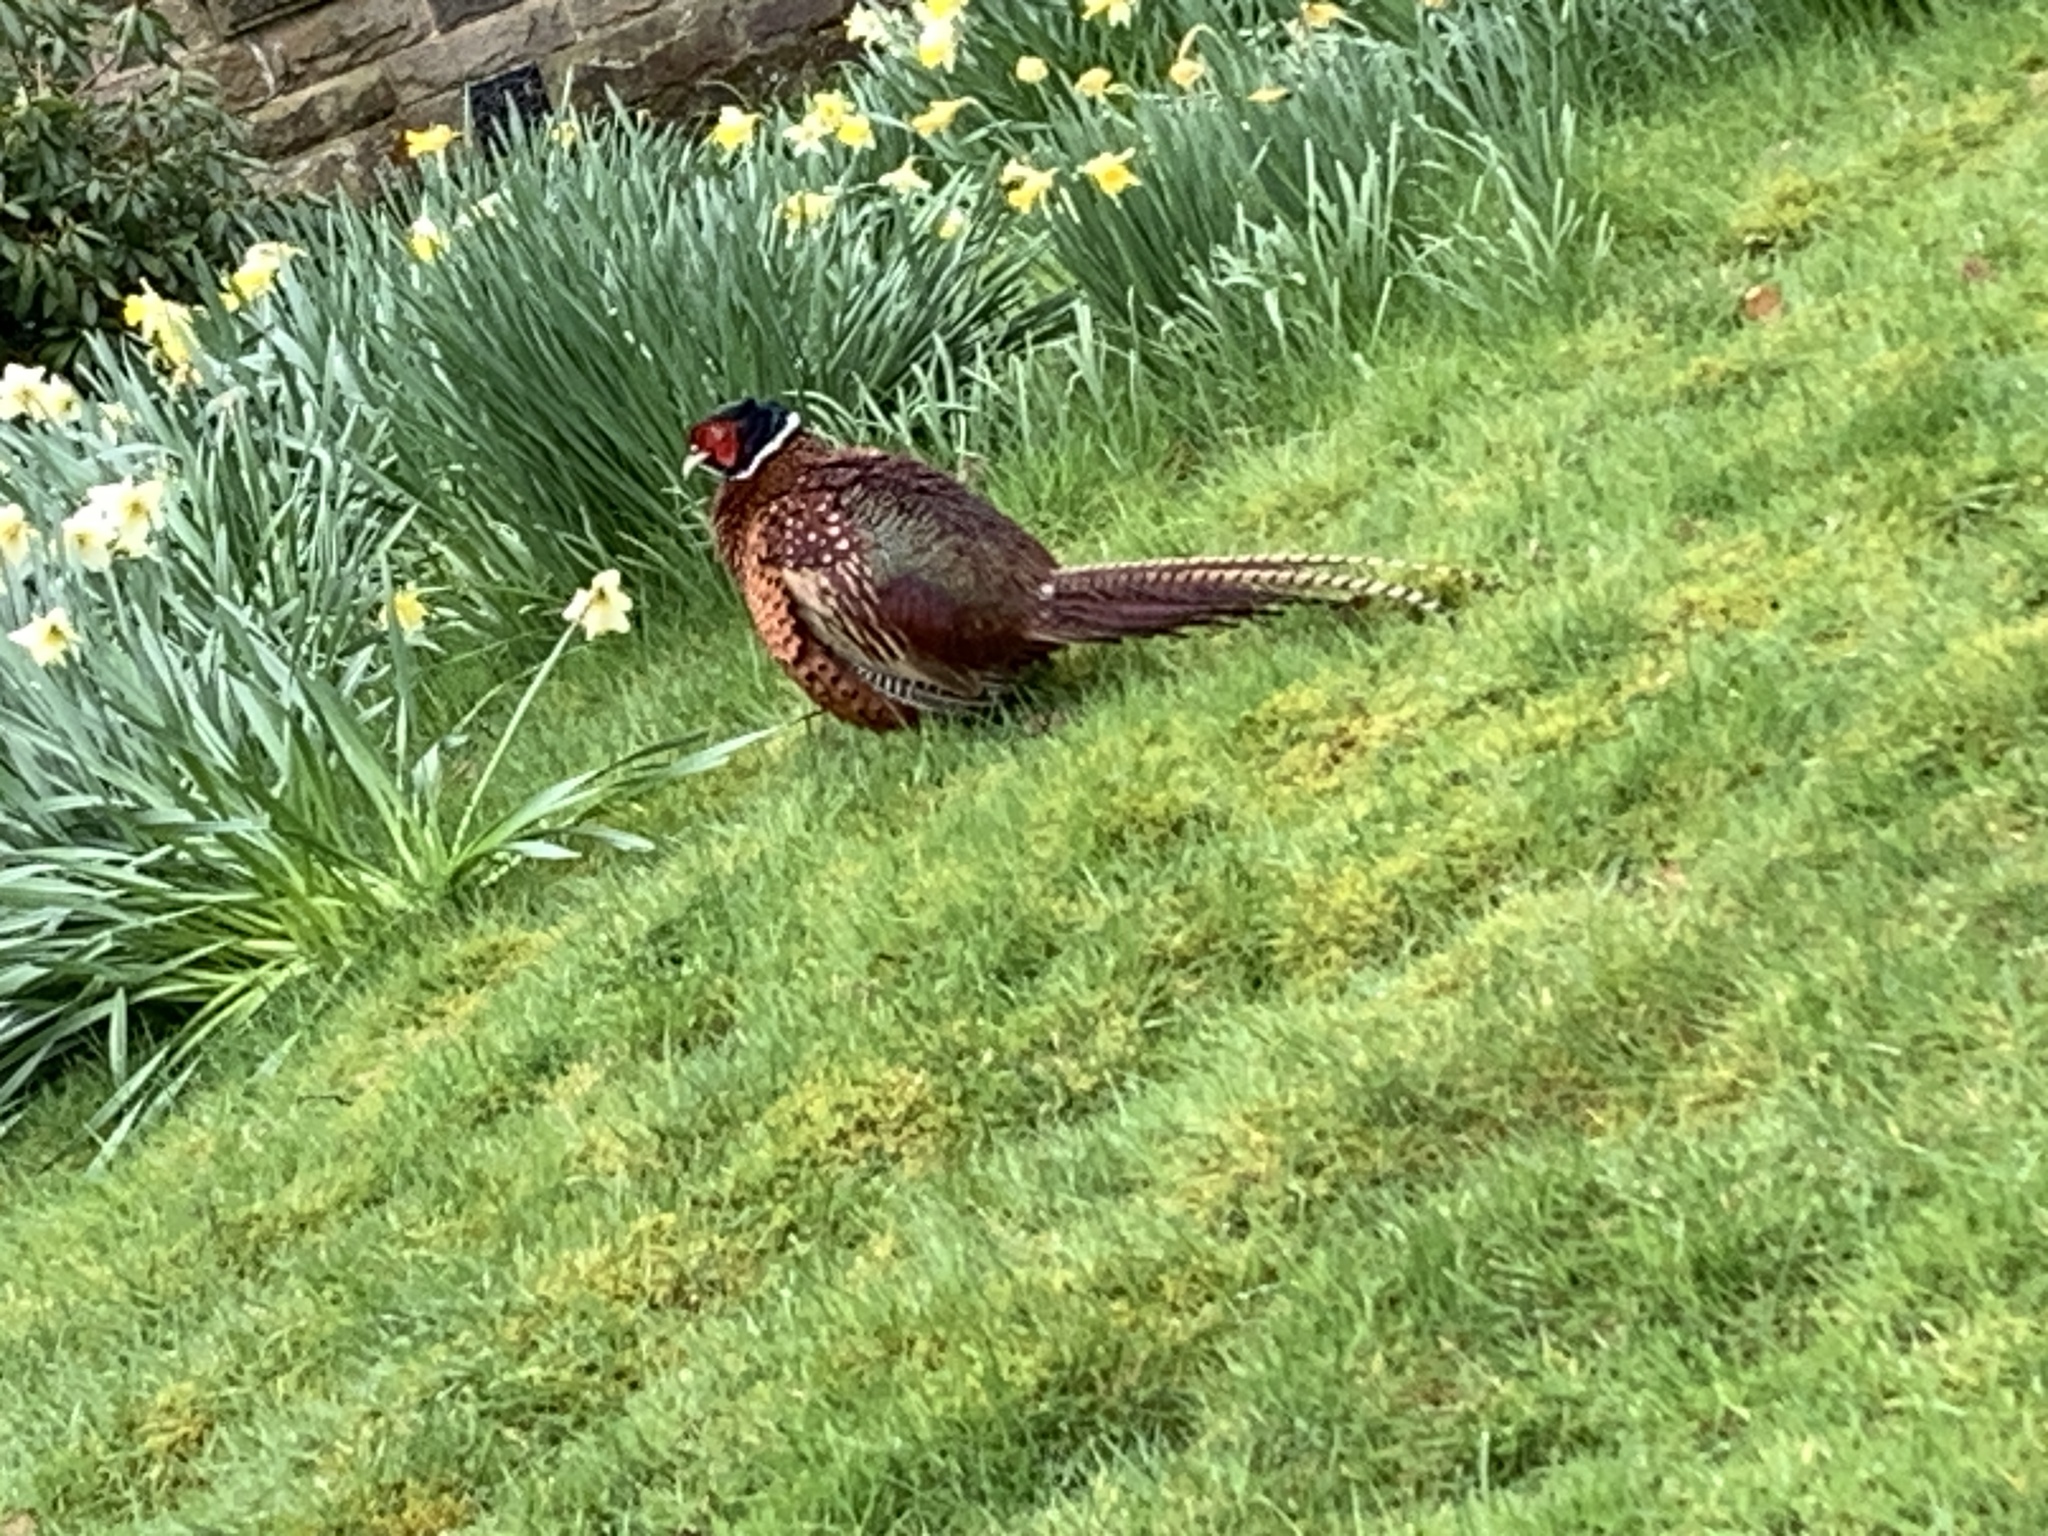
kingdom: Animalia
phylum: Chordata
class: Aves
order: Galliformes
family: Phasianidae
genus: Phasianus
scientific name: Phasianus colchicus
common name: Common pheasant
